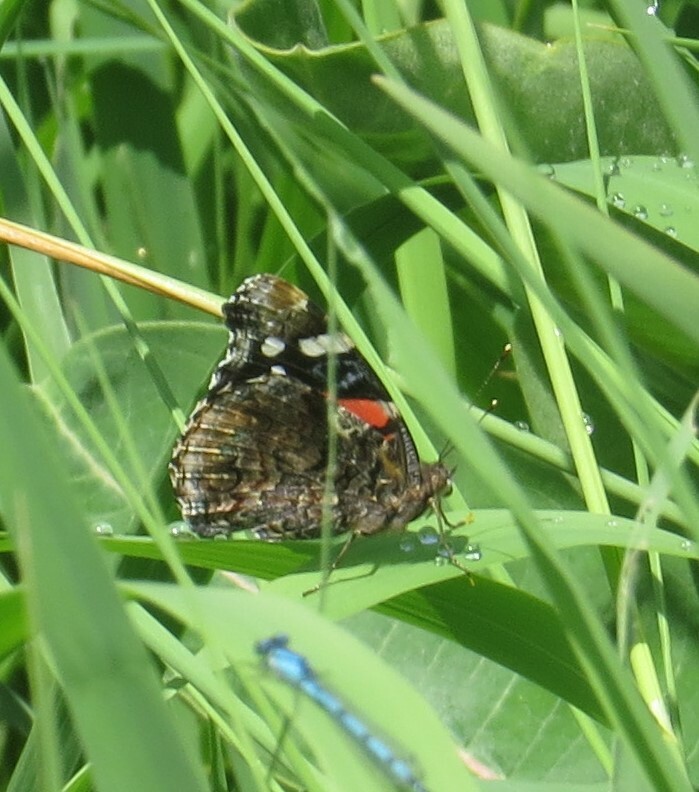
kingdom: Animalia
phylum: Arthropoda
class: Insecta
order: Lepidoptera
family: Nymphalidae
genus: Vanessa
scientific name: Vanessa atalanta
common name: Red admiral
